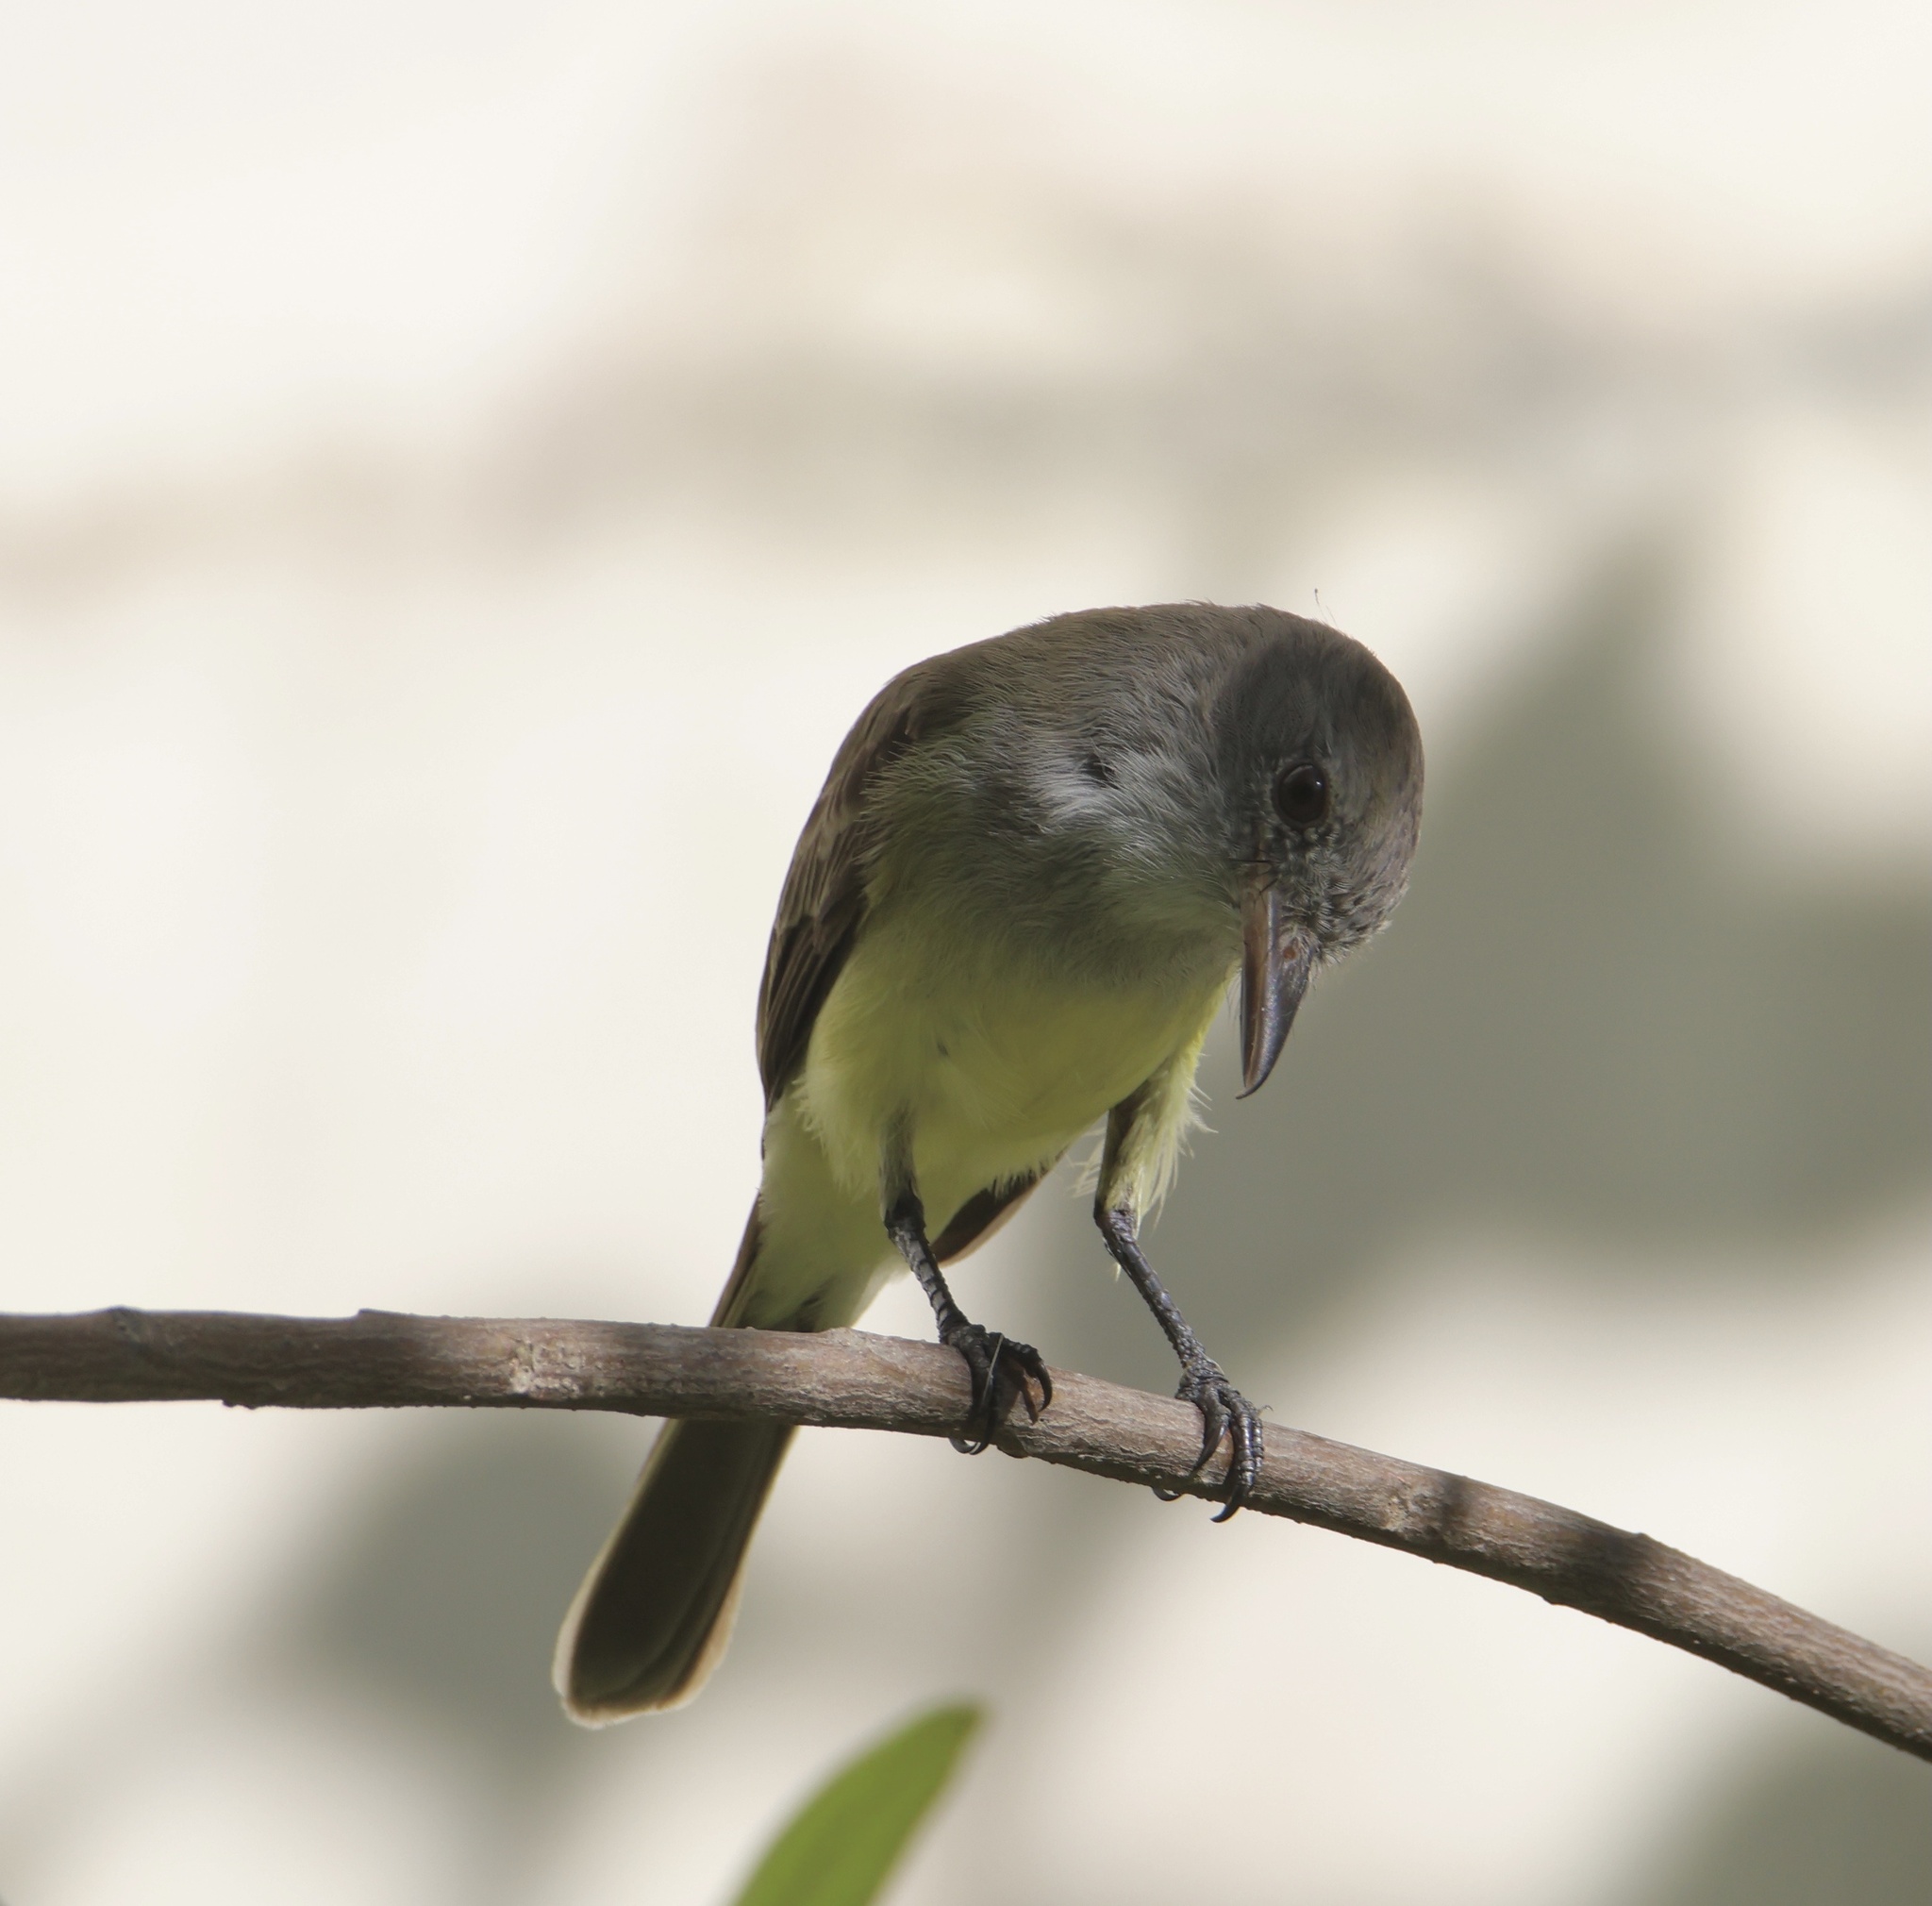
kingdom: Animalia
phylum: Chordata
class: Aves
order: Passeriformes
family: Tyrannidae
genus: Myiarchus
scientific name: Myiarchus panamensis
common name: Panama flycatcher
